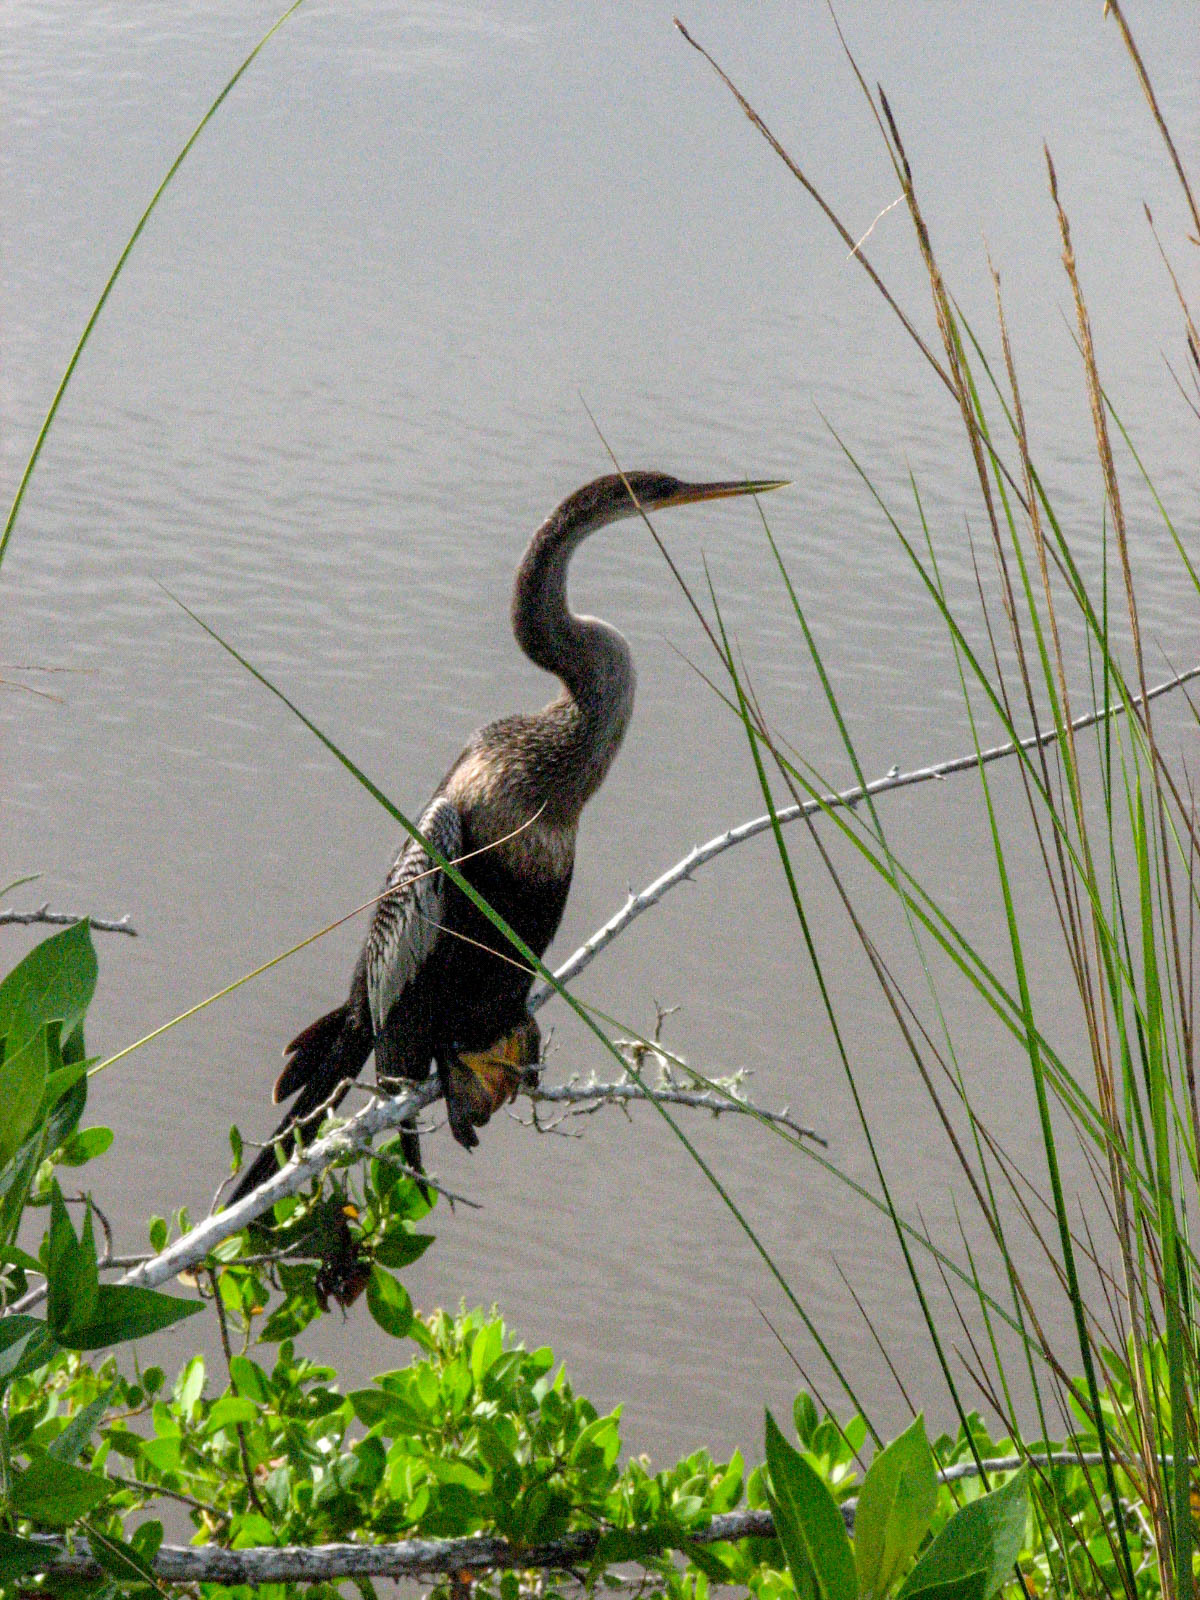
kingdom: Animalia
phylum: Chordata
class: Aves
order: Suliformes
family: Anhingidae
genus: Anhinga
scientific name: Anhinga anhinga
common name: Anhinga
